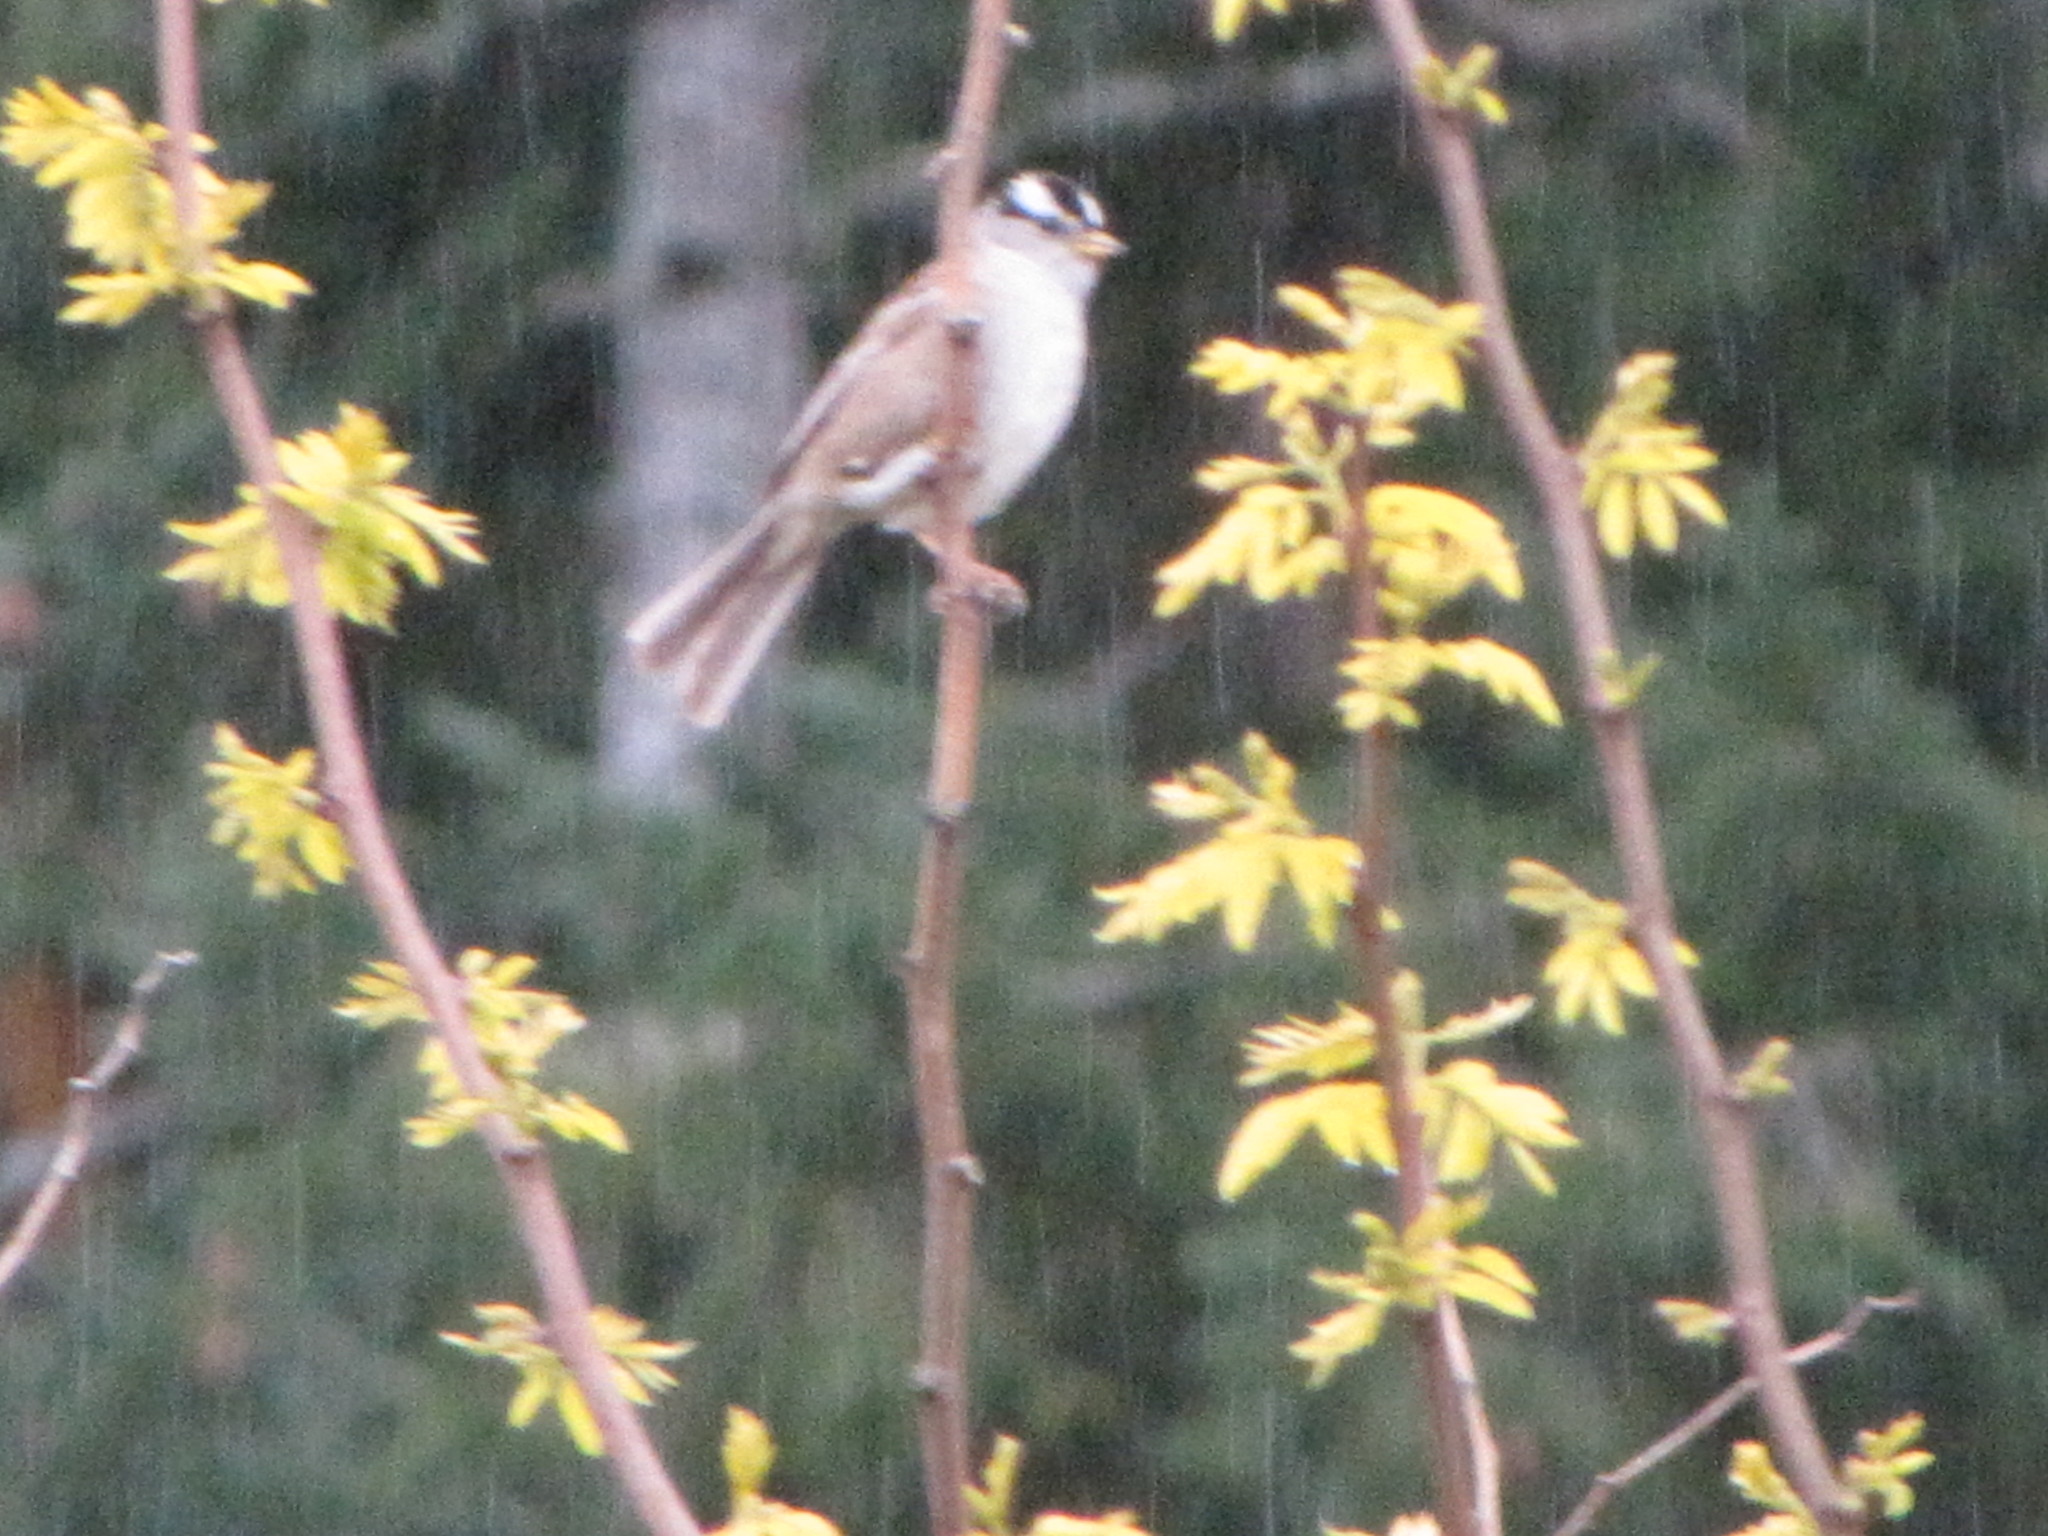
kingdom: Animalia
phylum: Chordata
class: Aves
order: Passeriformes
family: Passerellidae
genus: Zonotrichia
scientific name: Zonotrichia leucophrys
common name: White-crowned sparrow
